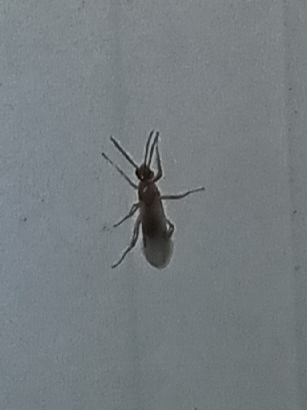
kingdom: Animalia
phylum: Arthropoda
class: Insecta
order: Hymenoptera
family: Formicidae
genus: Pachycondyla
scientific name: Pachycondyla chinensis
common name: Asian needle ant
